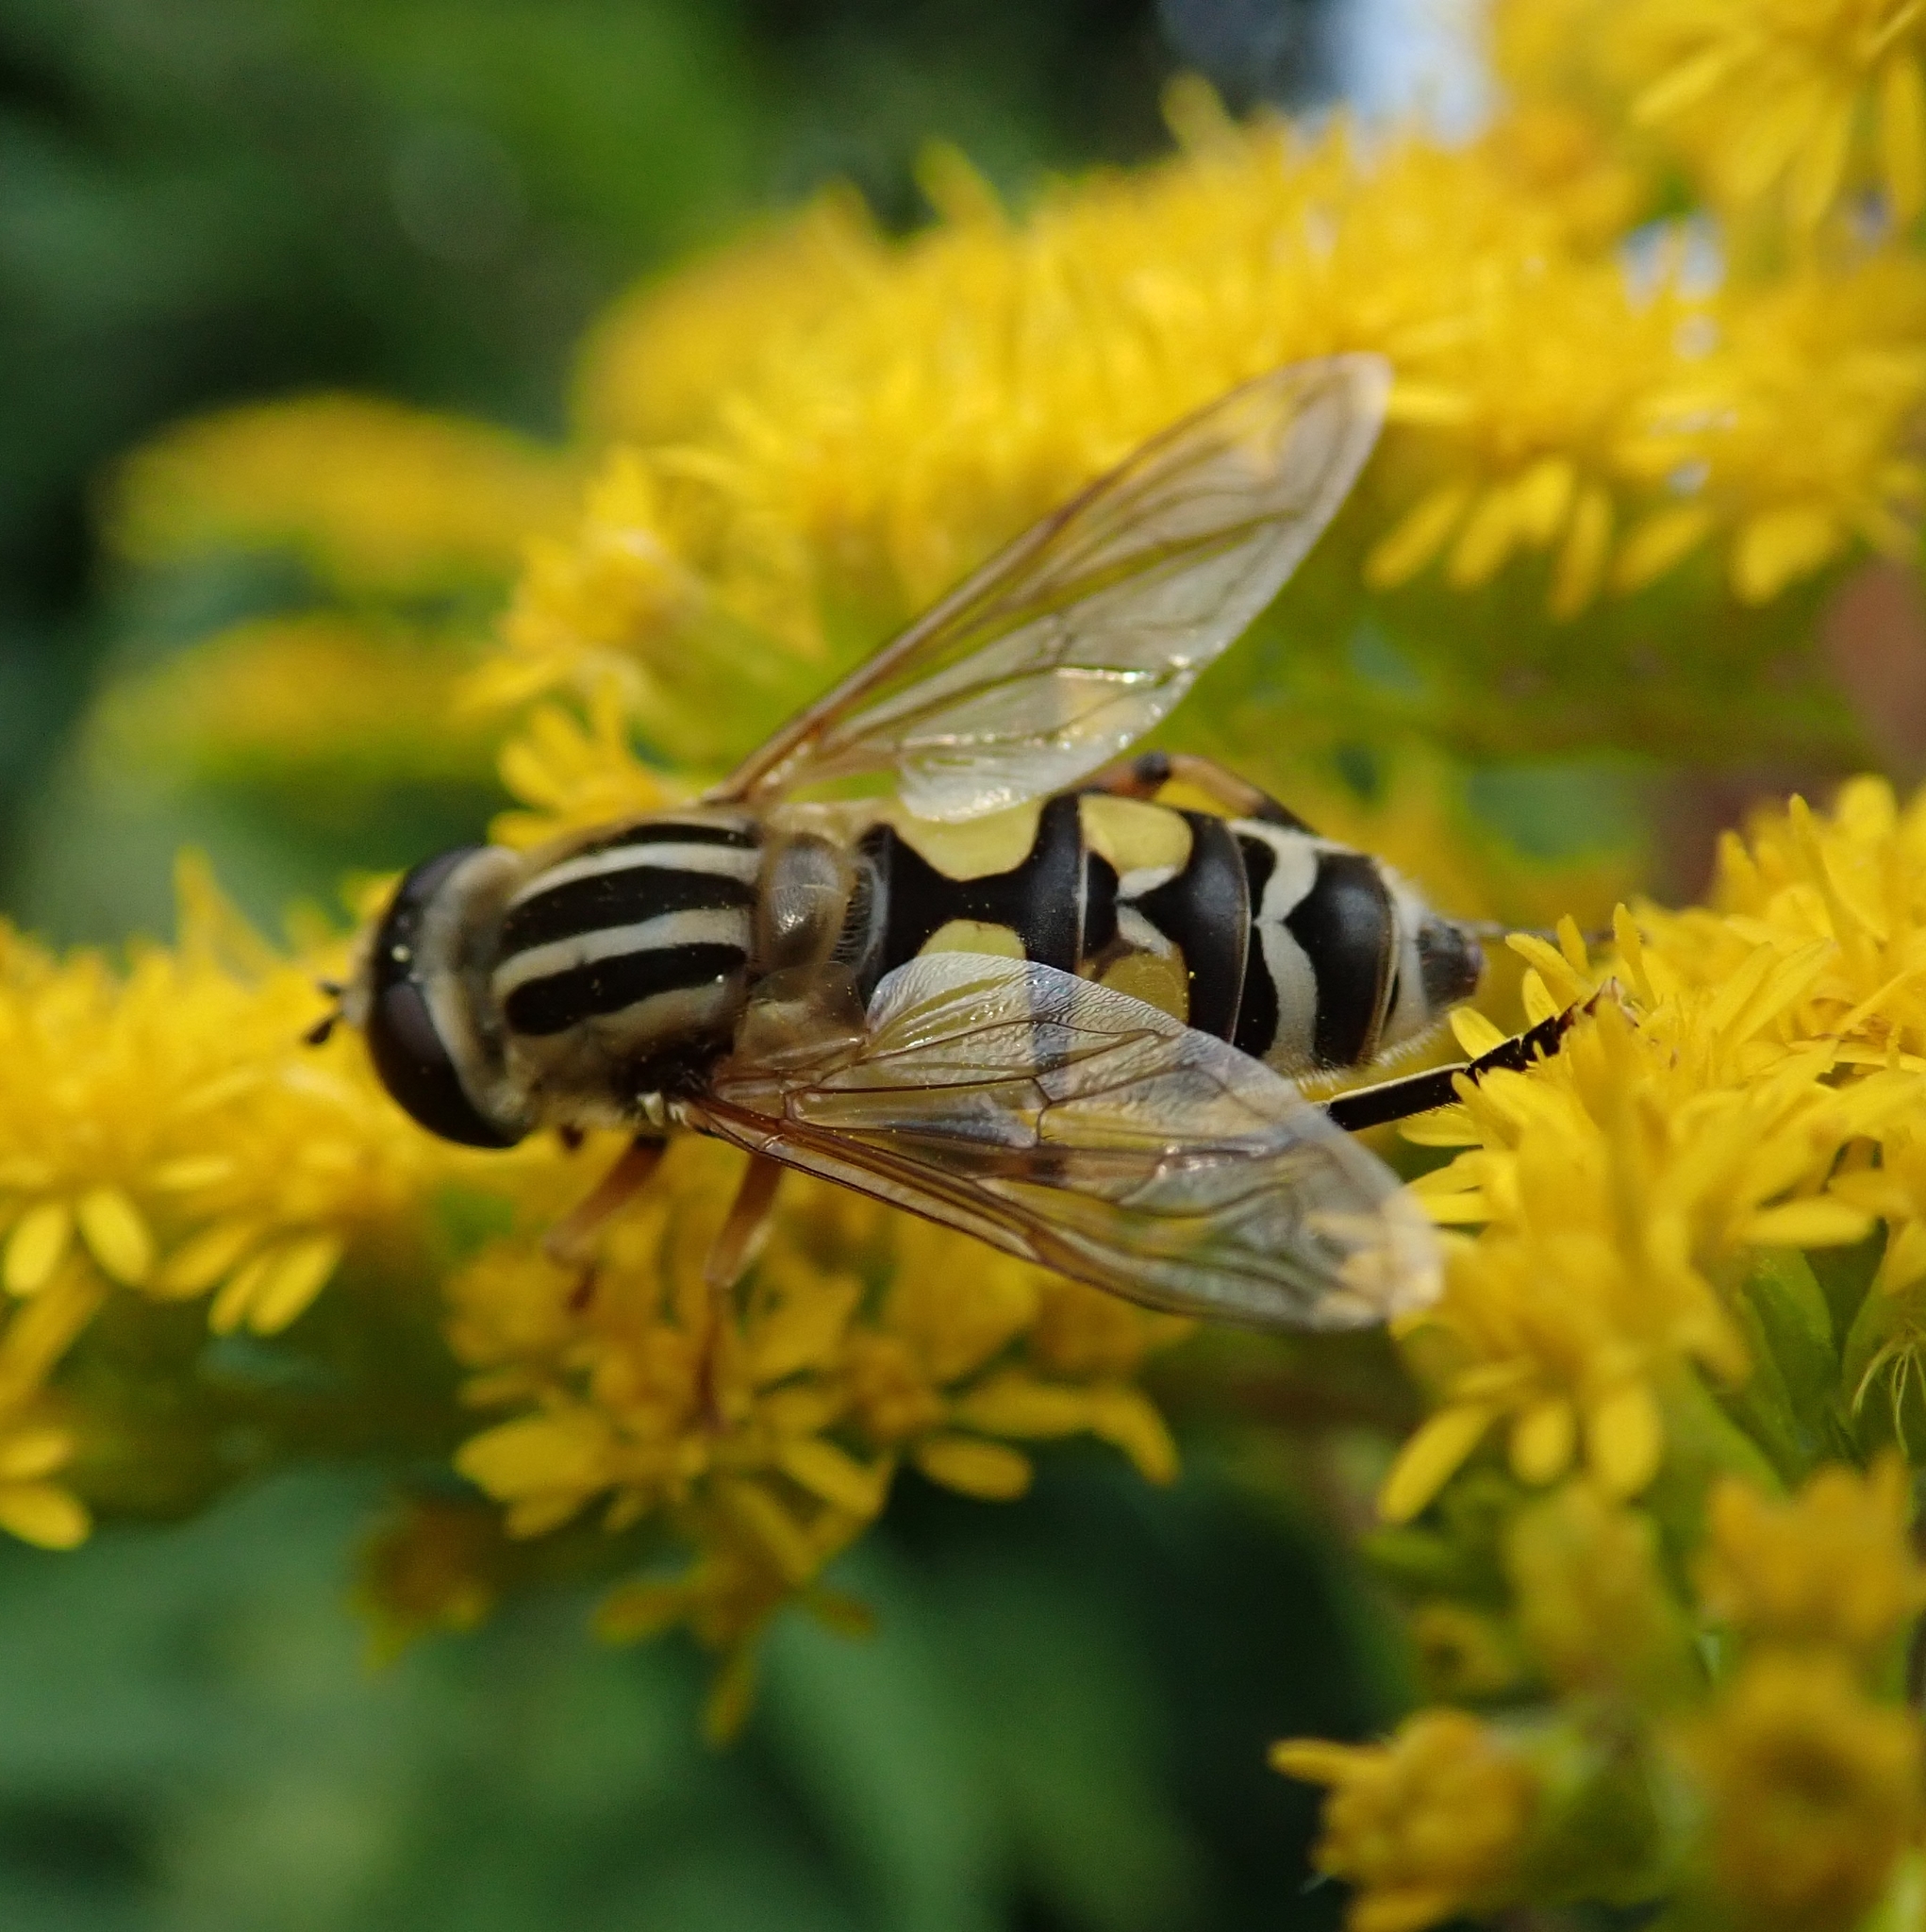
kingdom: Animalia
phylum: Arthropoda
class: Insecta
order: Diptera
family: Syrphidae
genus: Helophilus
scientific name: Helophilus trivittatus
